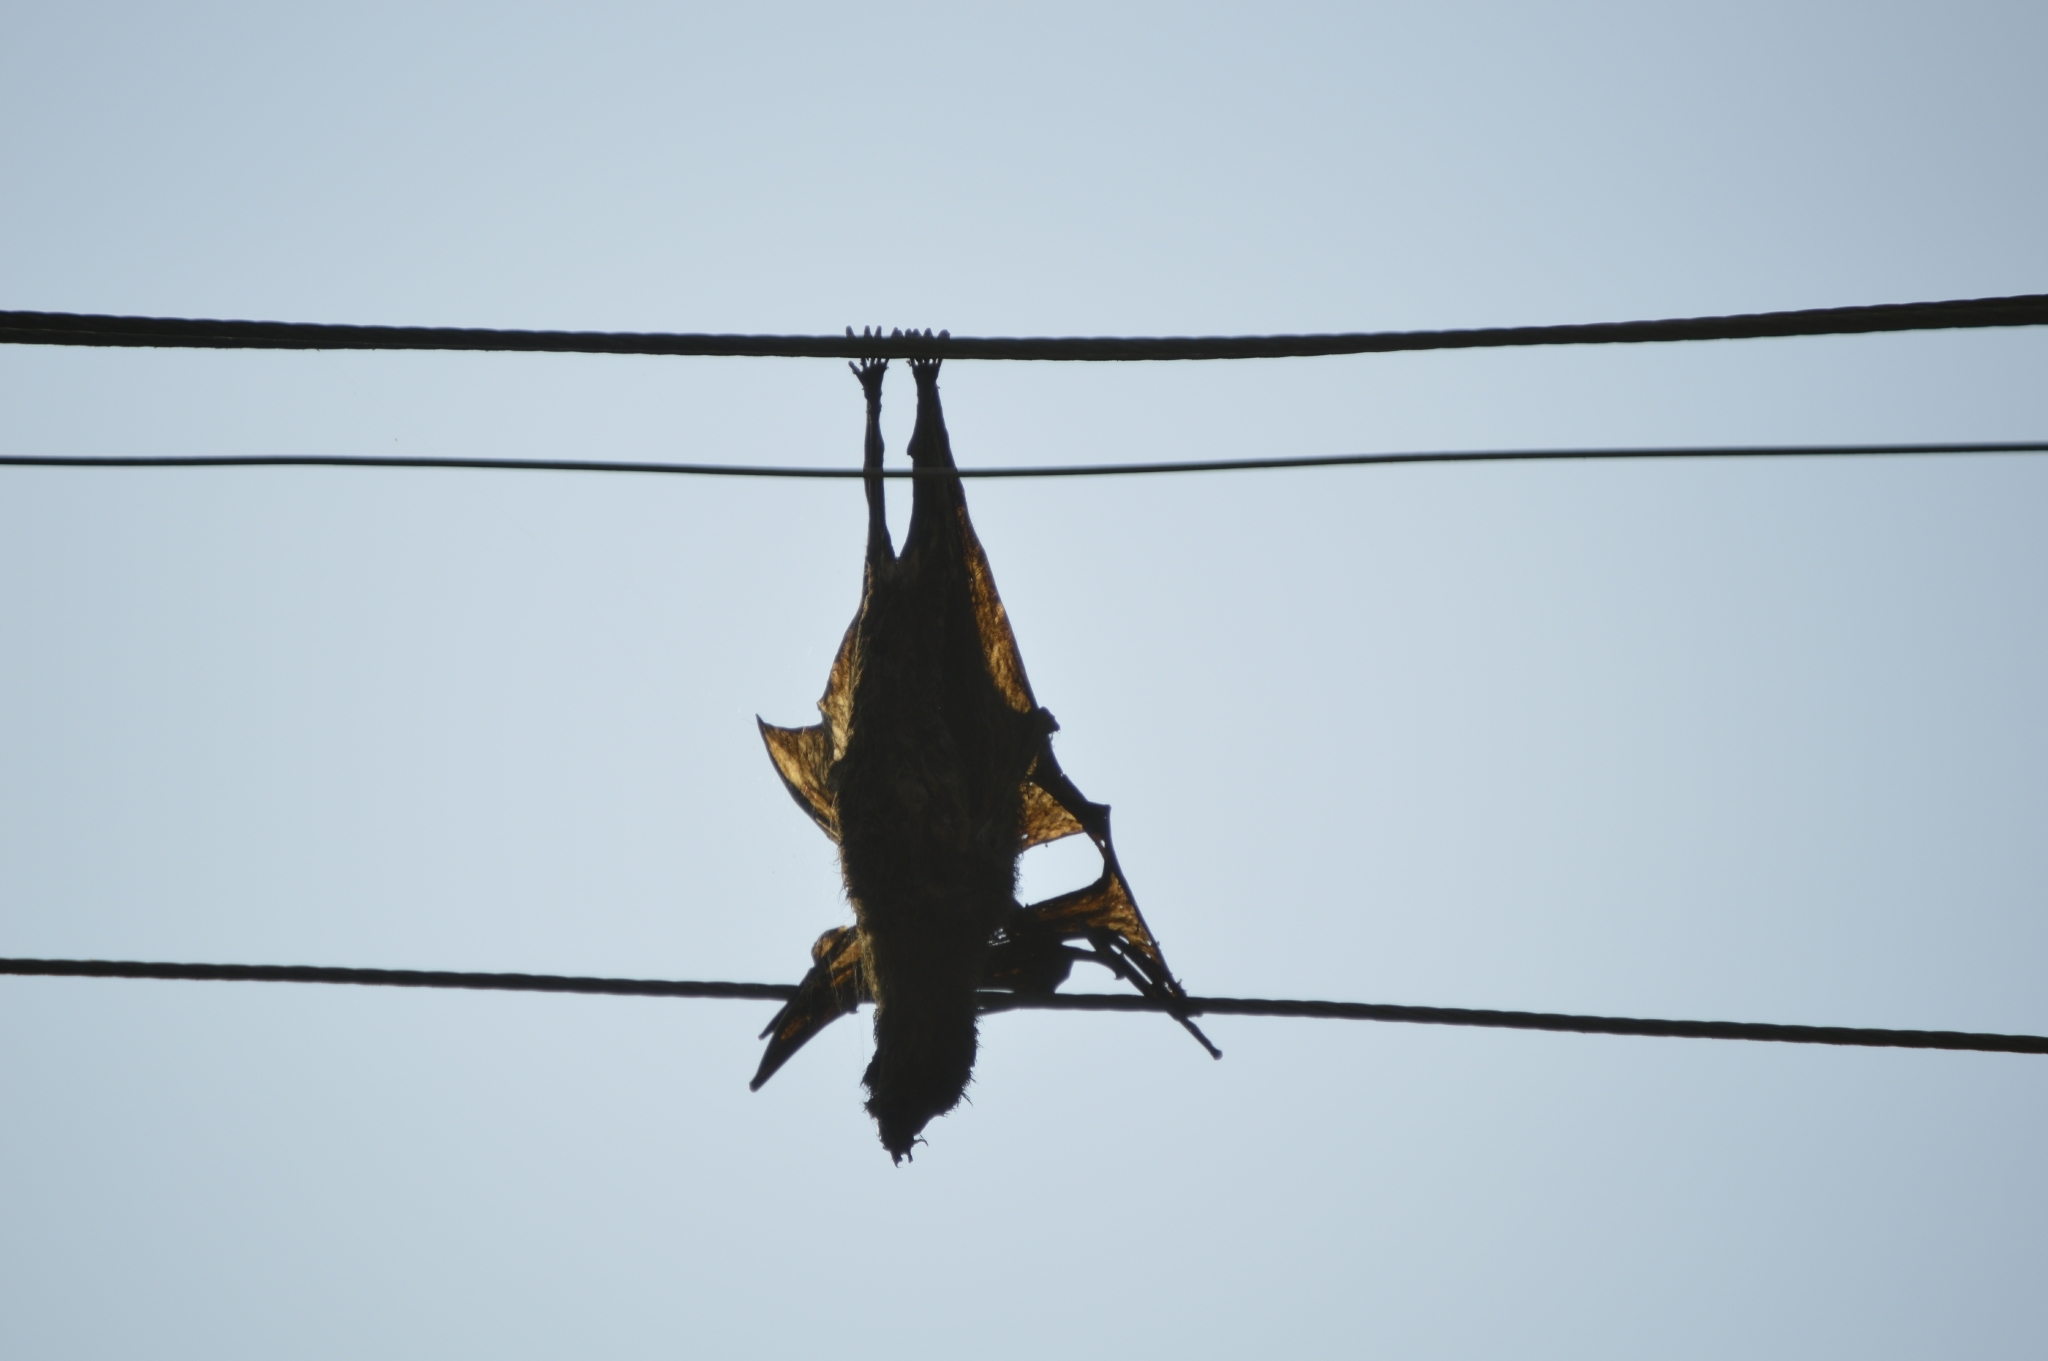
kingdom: Animalia
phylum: Chordata
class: Mammalia
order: Chiroptera
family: Pteropodidae
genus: Pteropus
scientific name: Pteropus vampyrus
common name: Large flying fox
